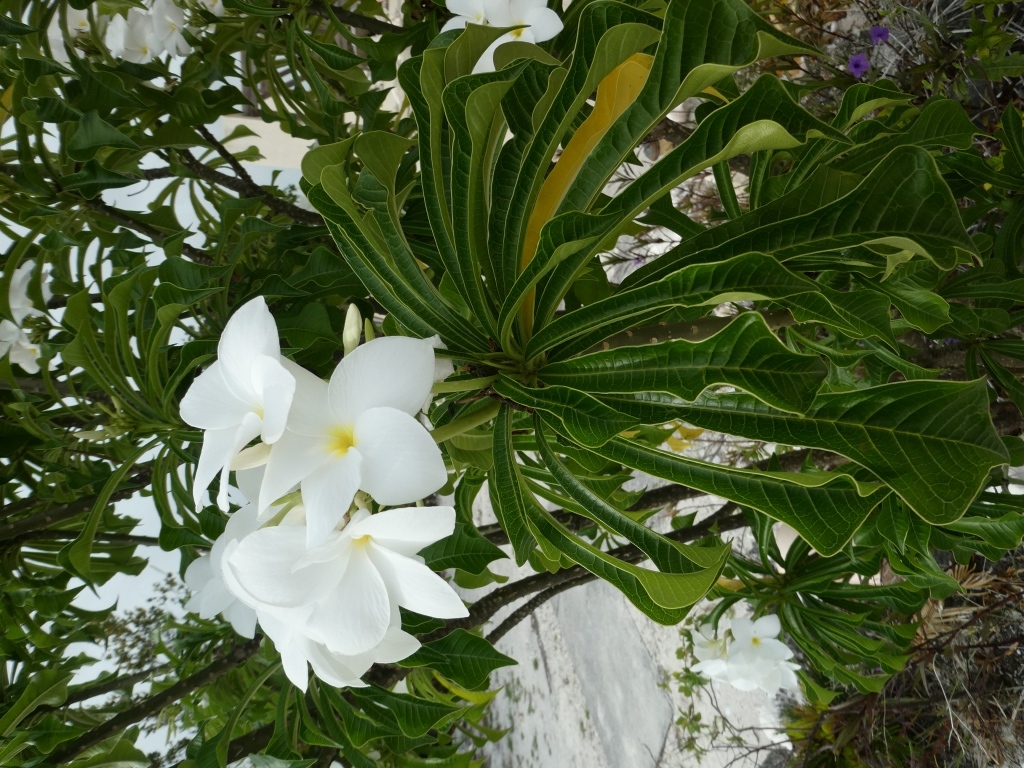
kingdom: Plantae
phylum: Tracheophyta
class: Magnoliopsida
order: Gentianales
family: Apocynaceae
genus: Plumeria
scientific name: Plumeria pudica
